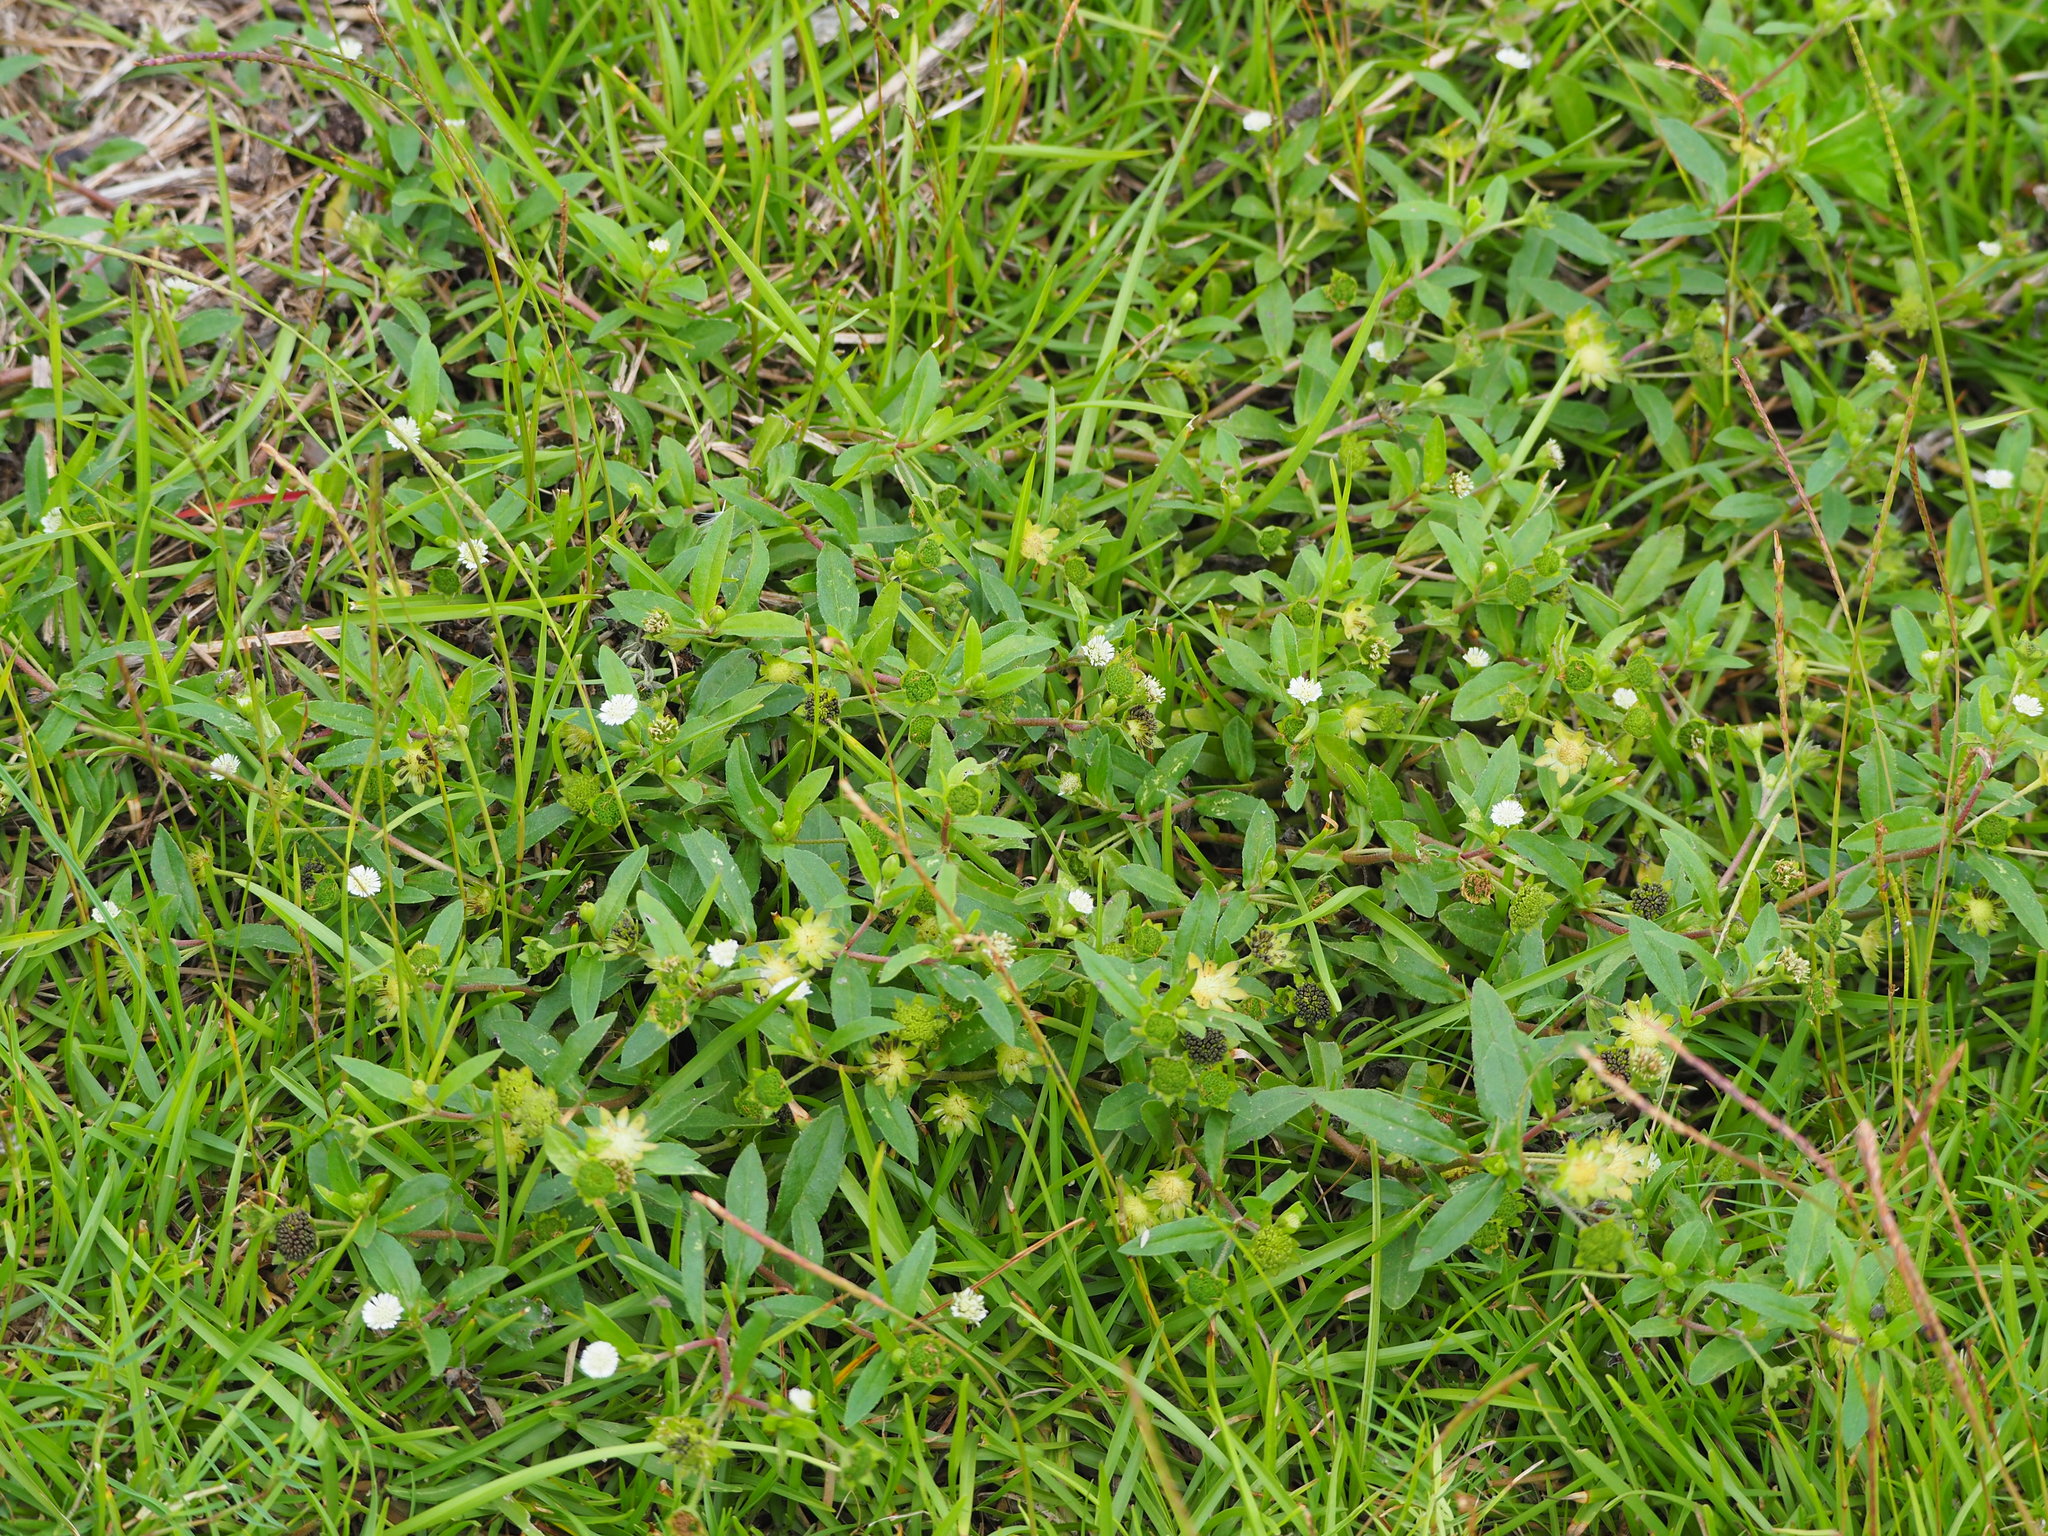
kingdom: Plantae
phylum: Tracheophyta
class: Magnoliopsida
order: Asterales
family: Asteraceae
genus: Eclipta
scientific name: Eclipta prostrata
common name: False daisy
